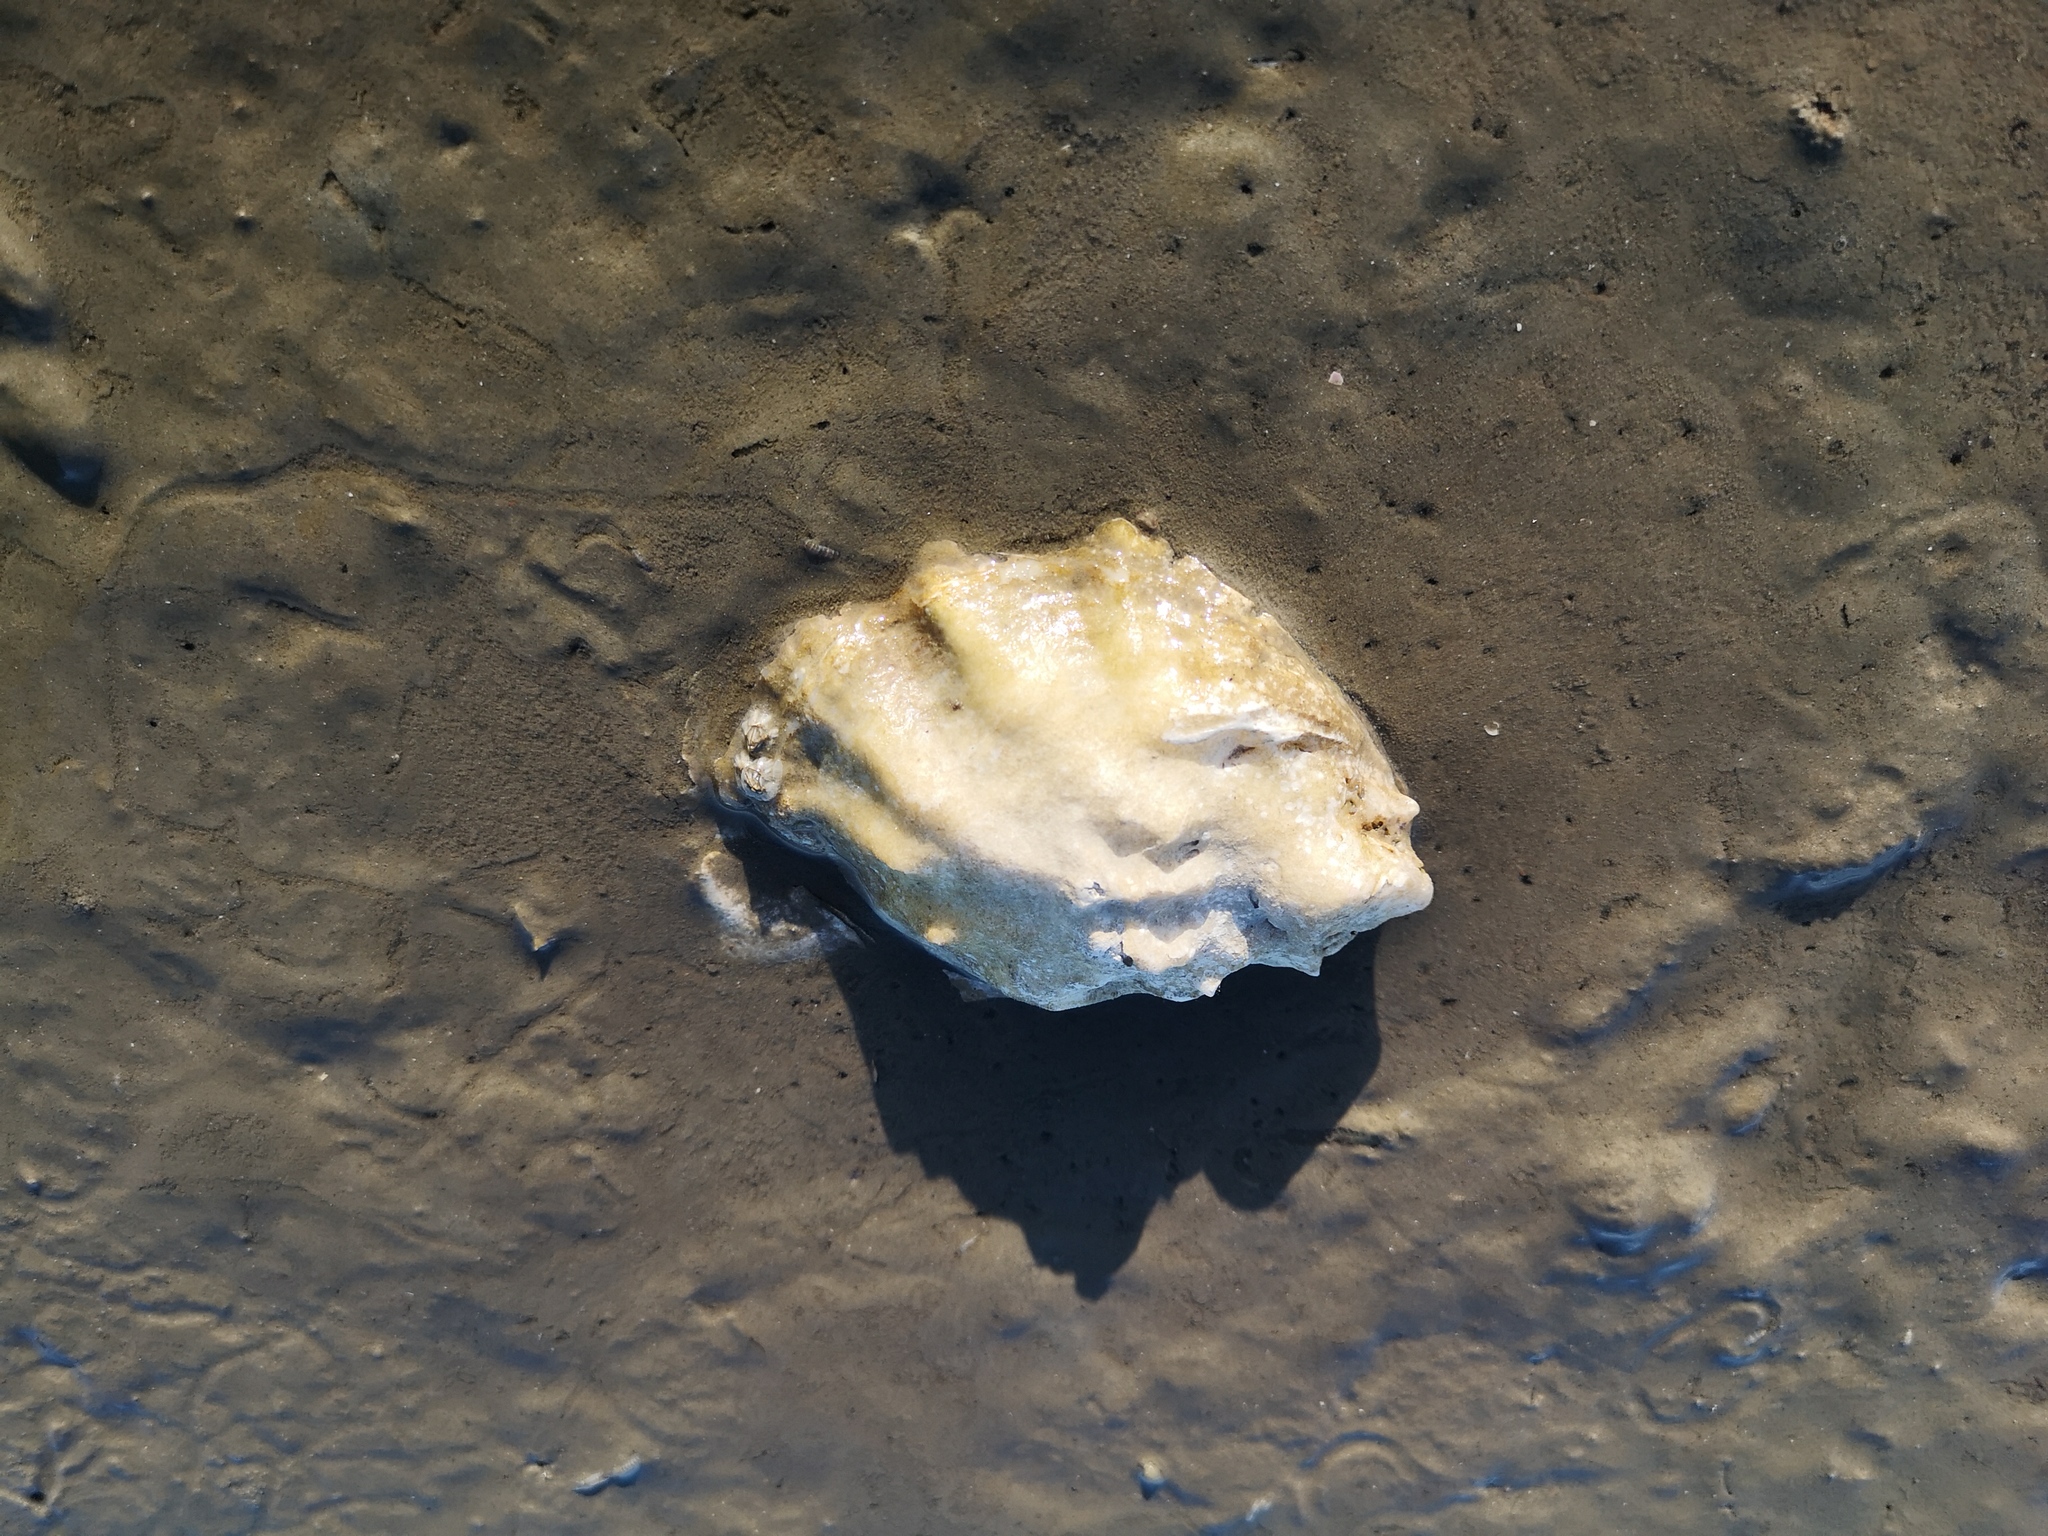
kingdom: Animalia
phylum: Mollusca
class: Bivalvia
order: Ostreida
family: Ostreidae
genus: Magallana
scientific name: Magallana gigas
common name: Pacific oyster
